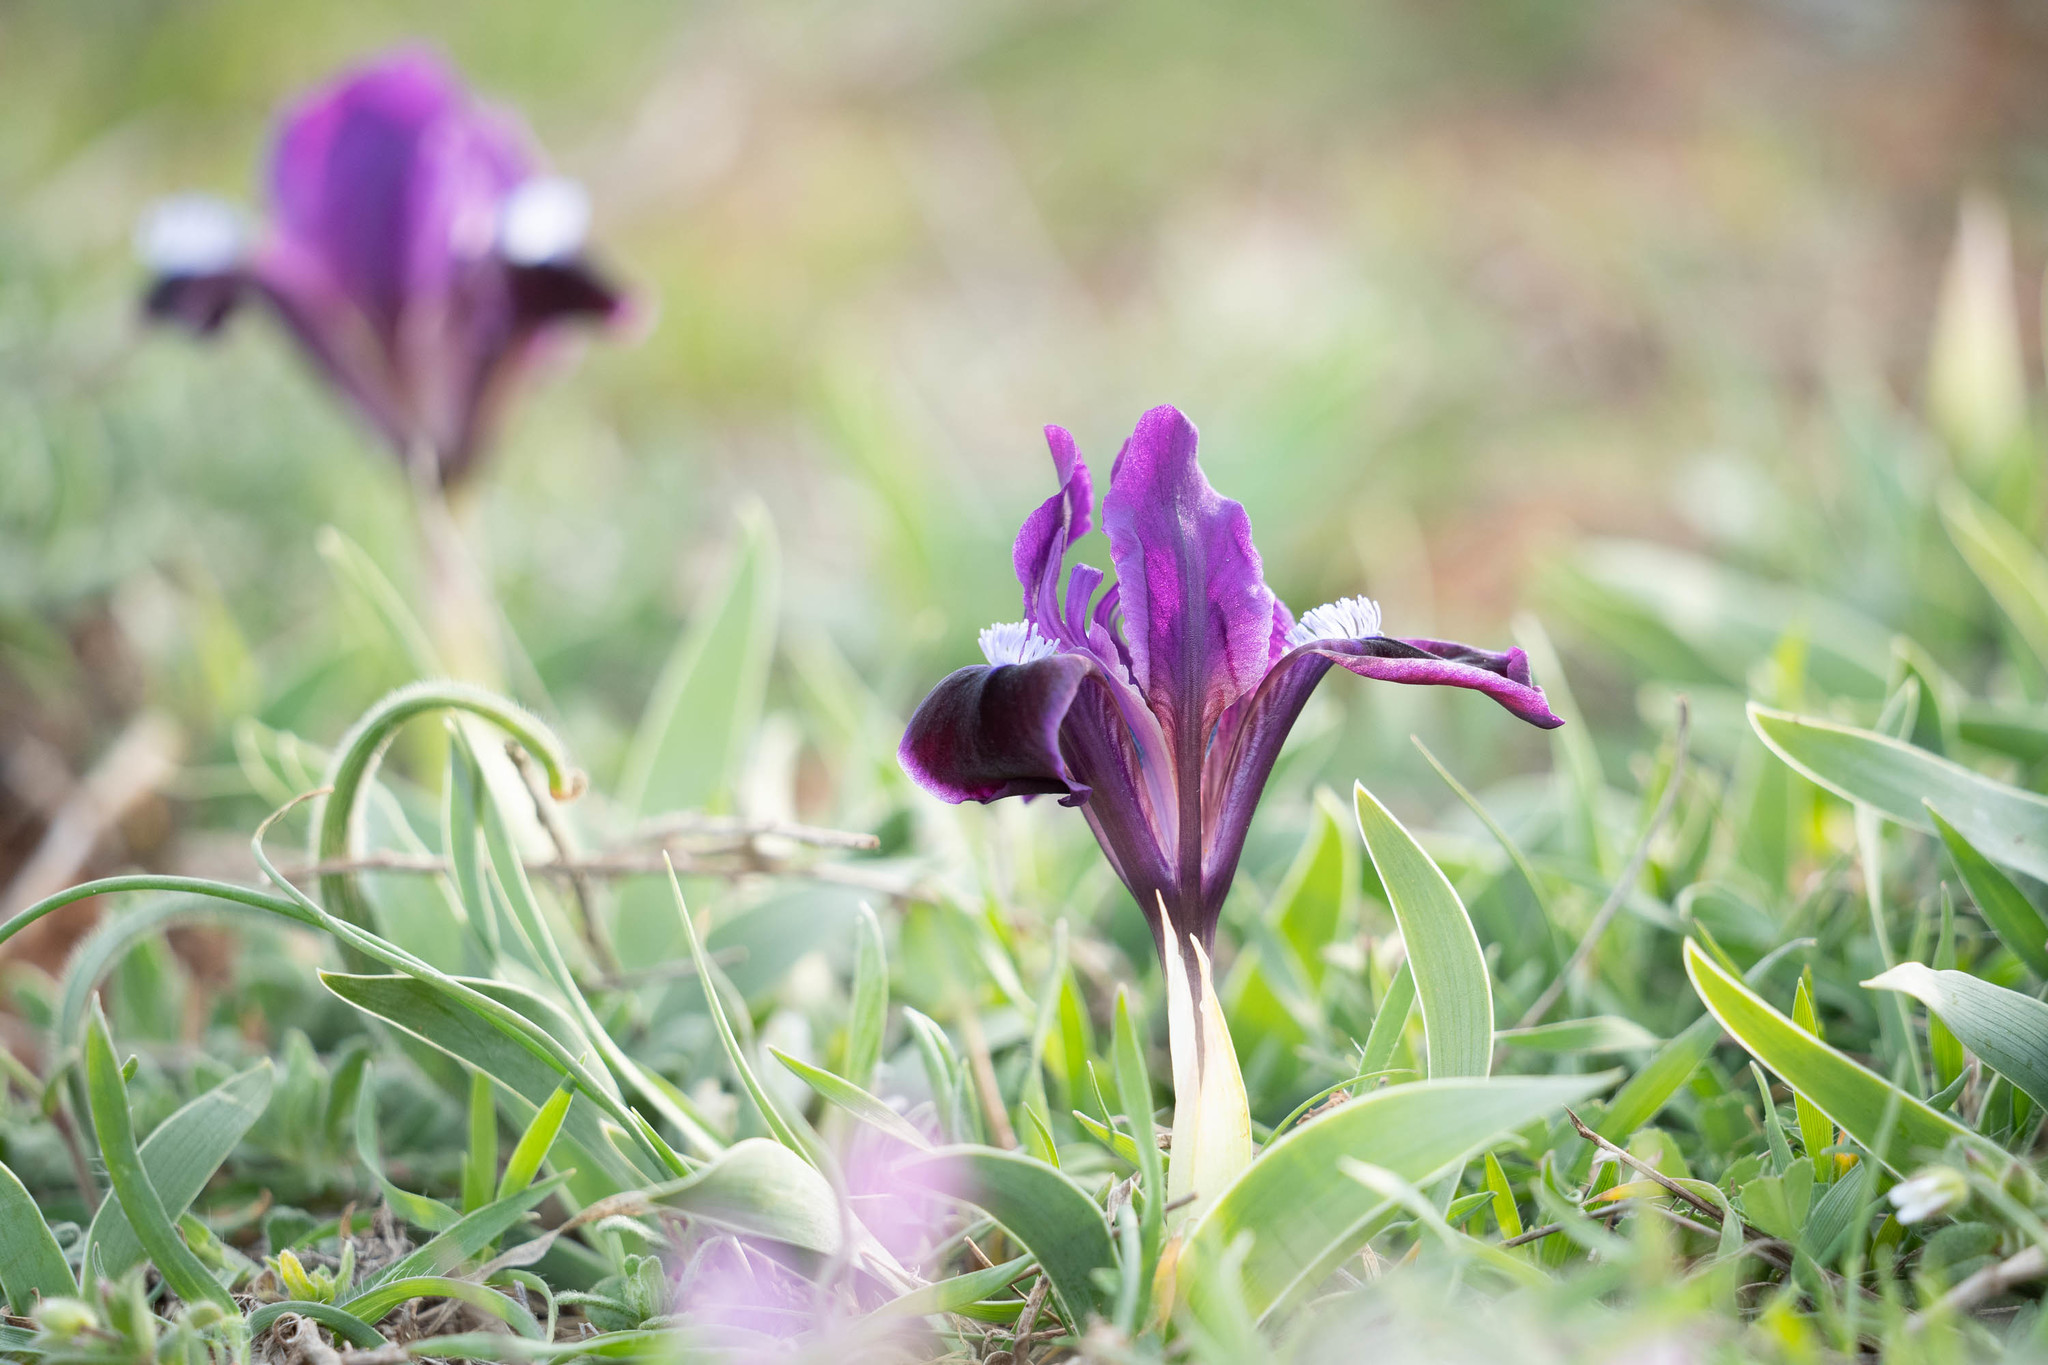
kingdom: Plantae
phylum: Tracheophyta
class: Liliopsida
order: Asparagales
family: Iridaceae
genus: Iris
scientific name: Iris pumila
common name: Dwarf iris
